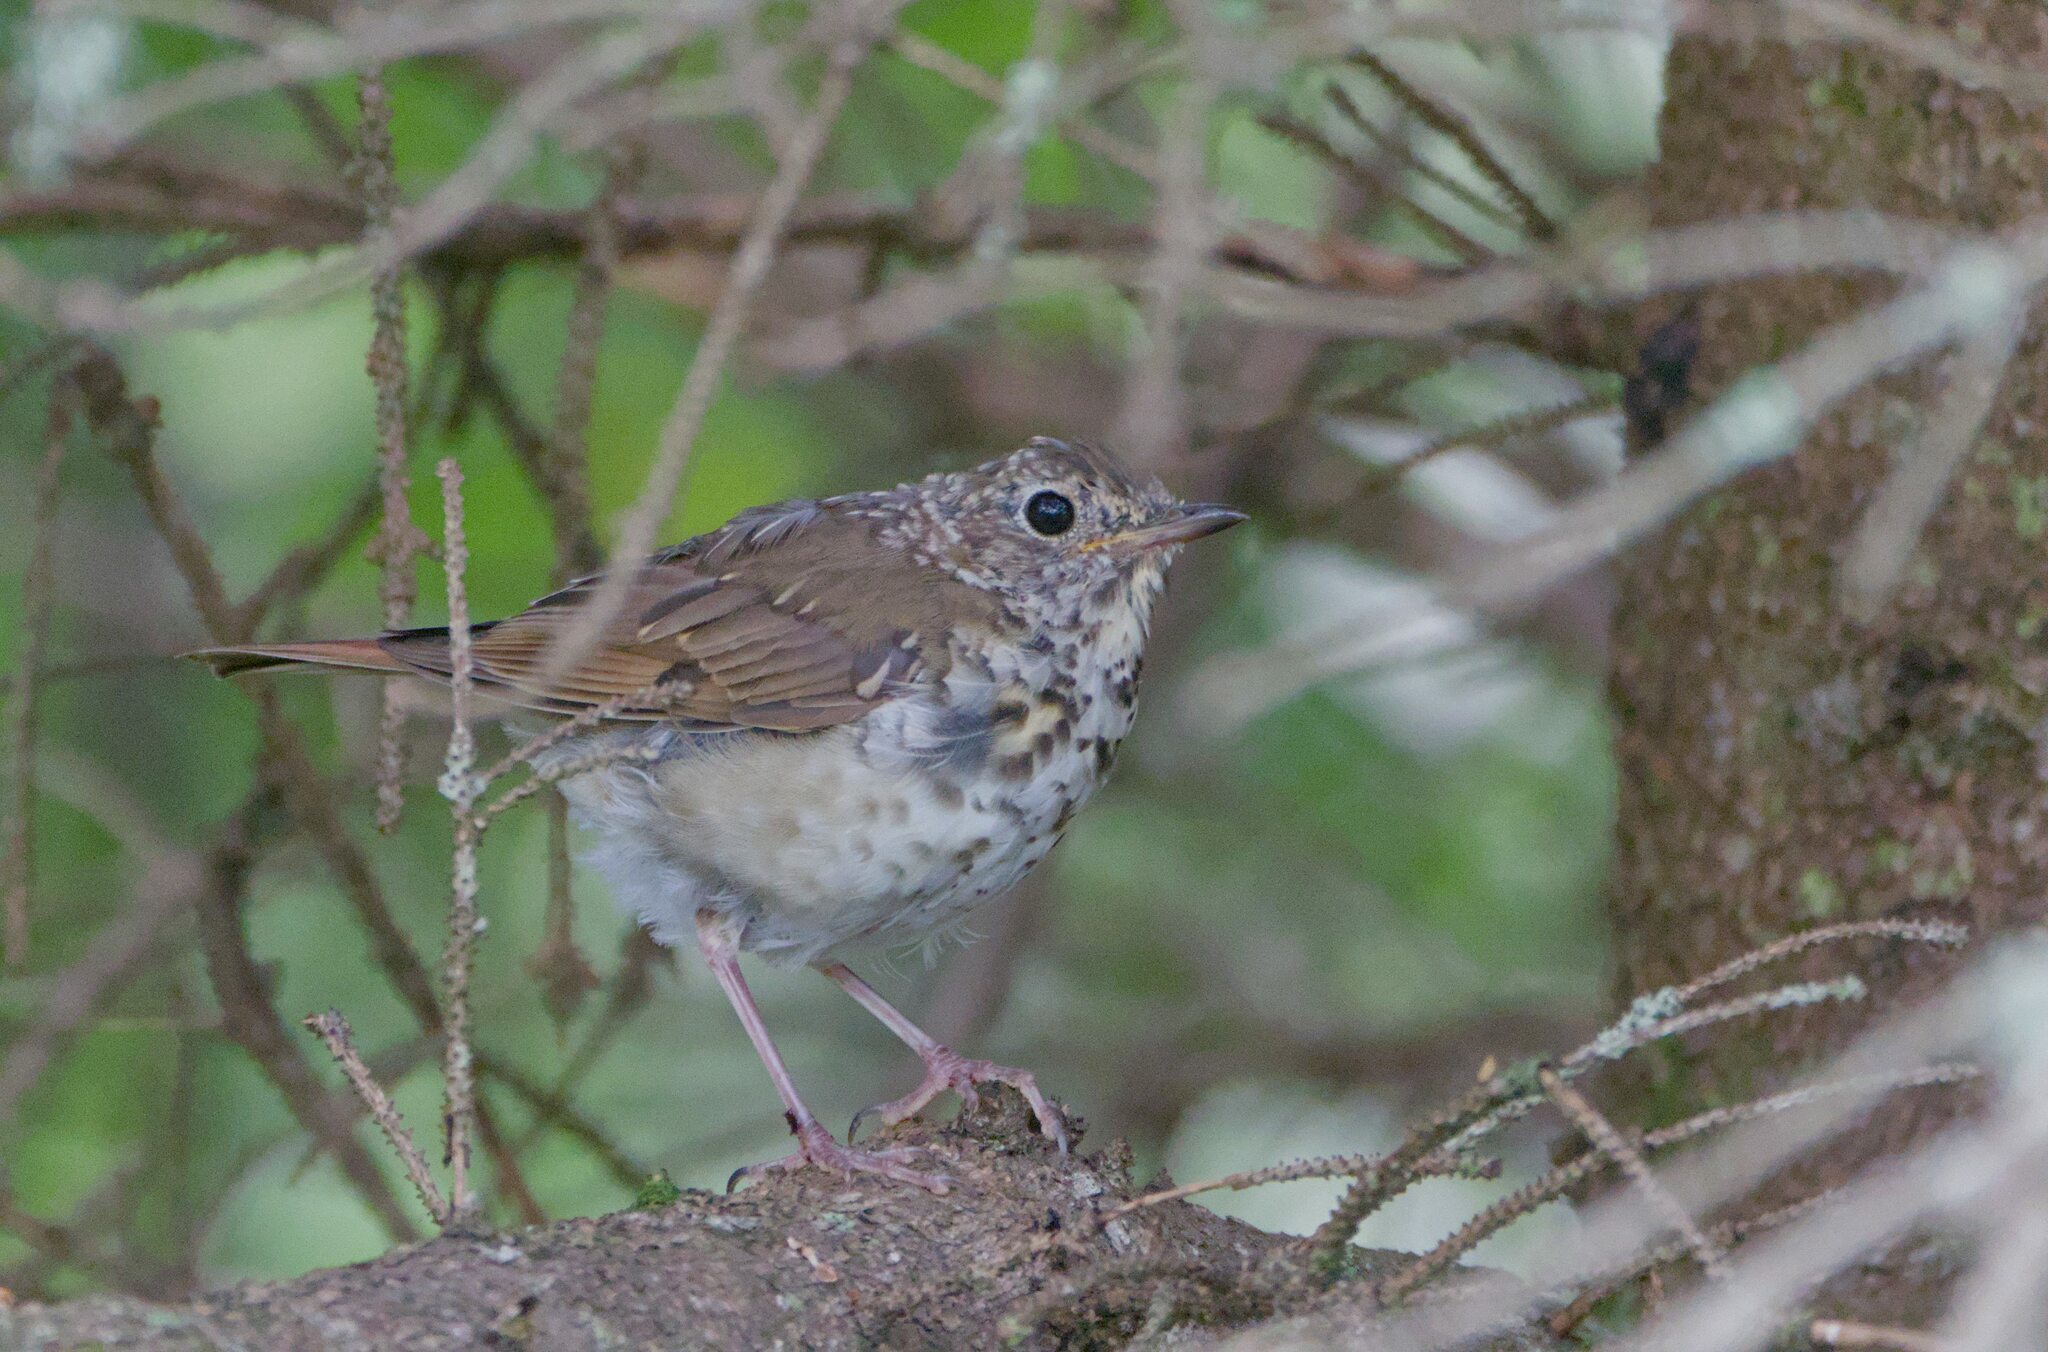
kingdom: Animalia
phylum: Chordata
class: Aves
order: Passeriformes
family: Turdidae
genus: Catharus
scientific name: Catharus guttatus
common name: Hermit thrush
